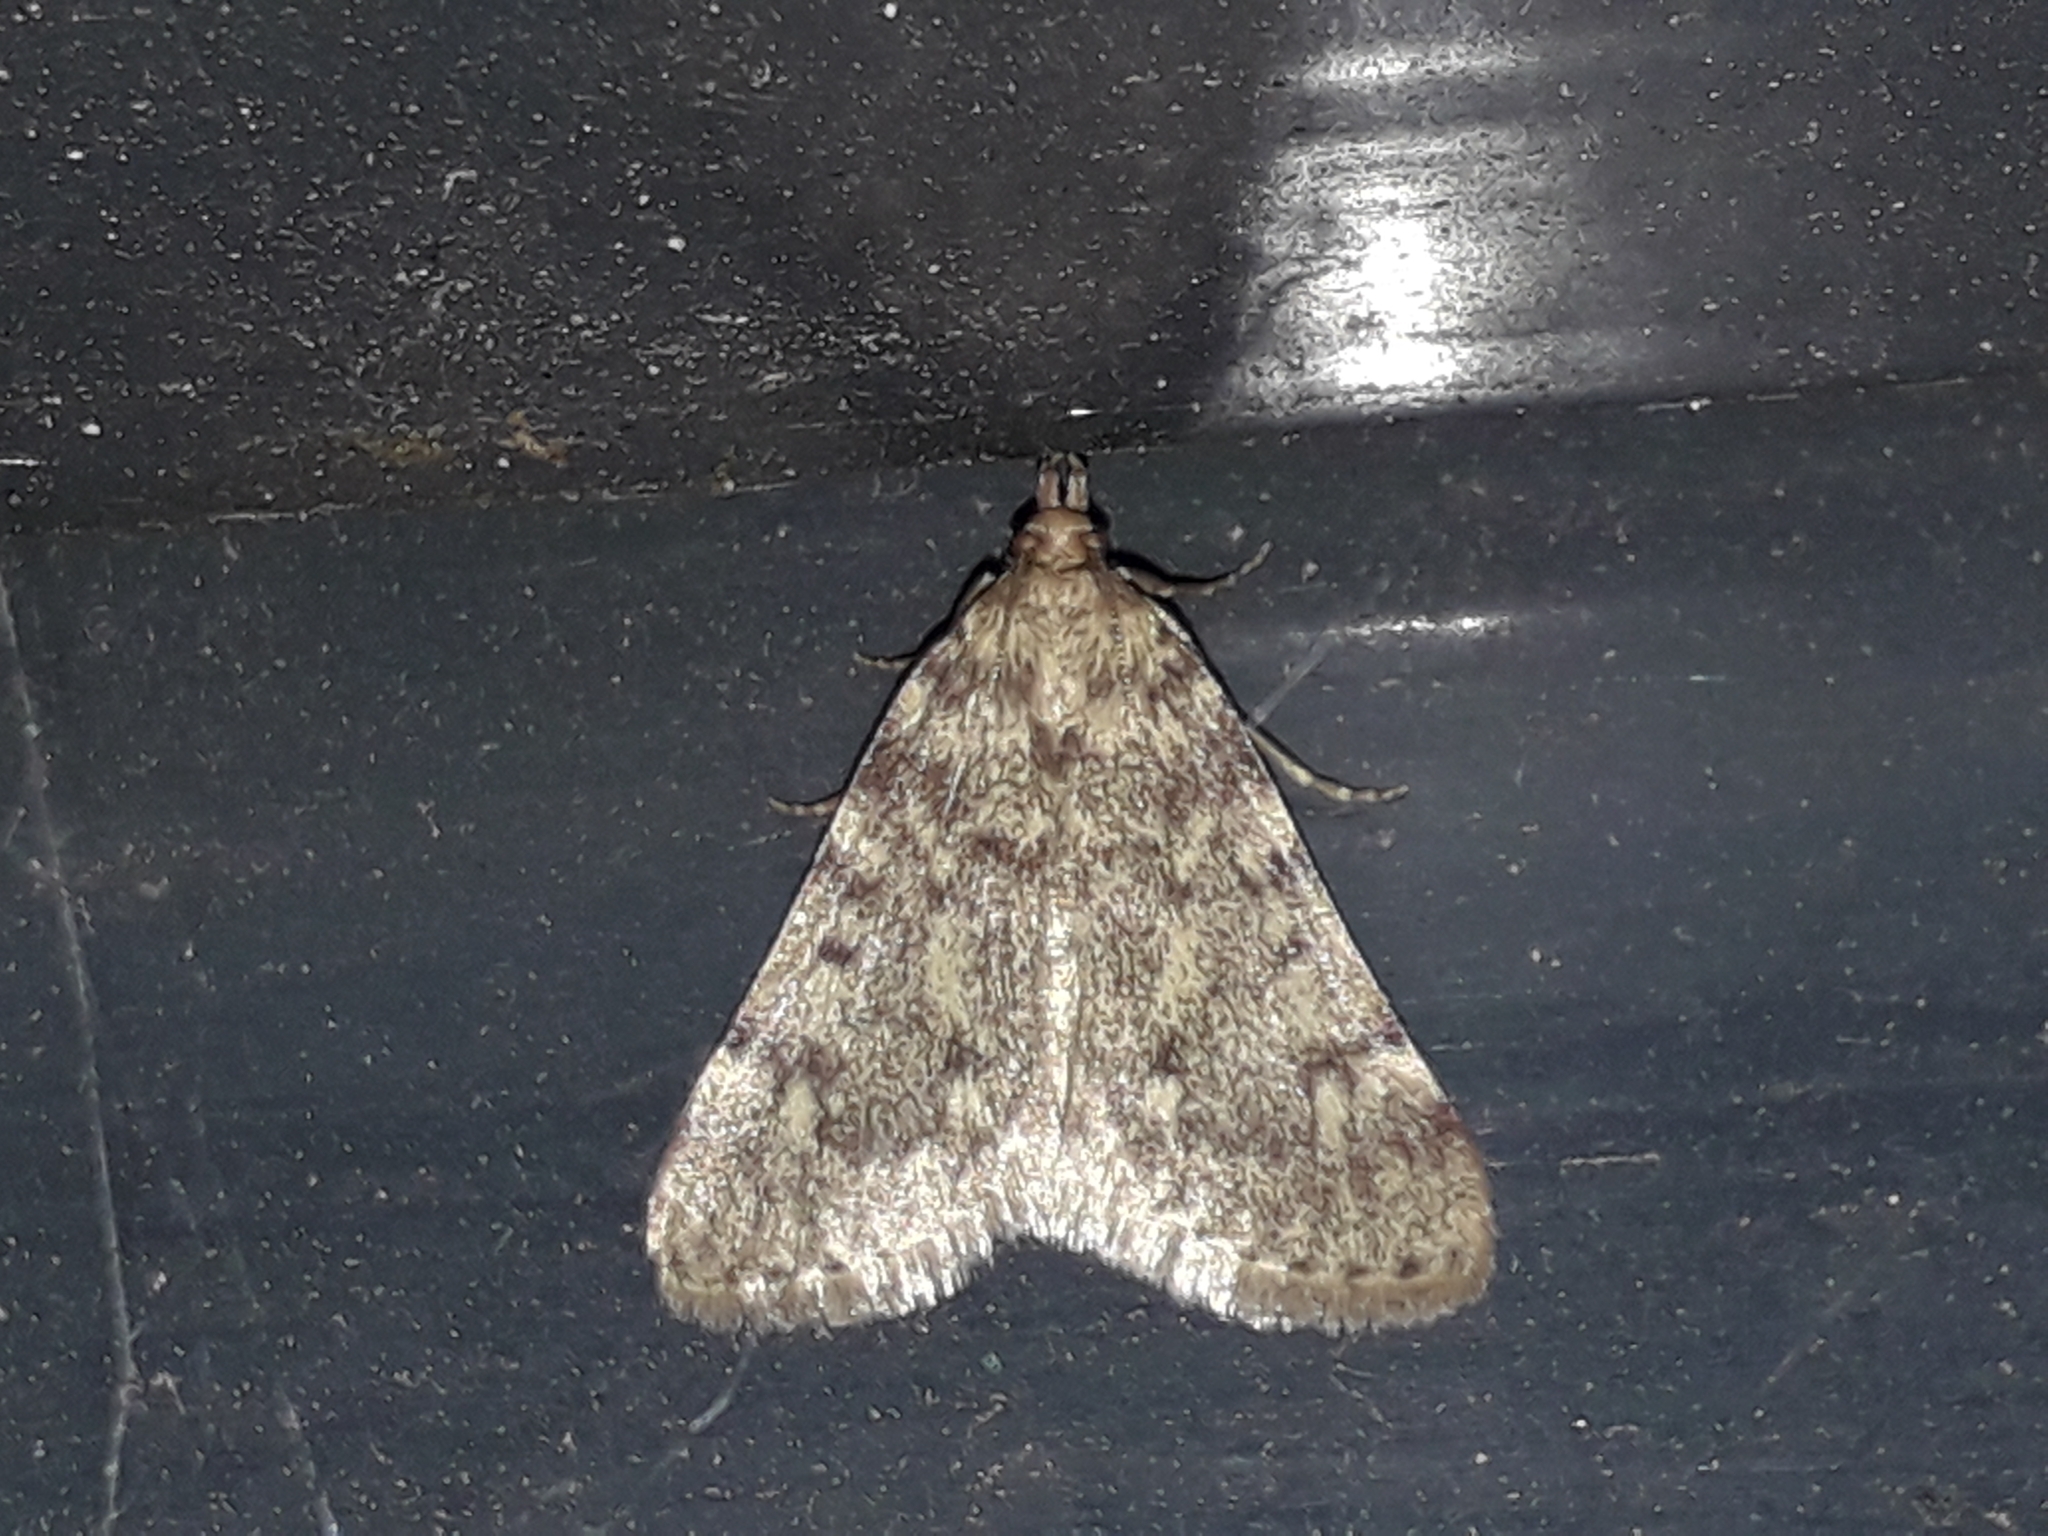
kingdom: Animalia
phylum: Arthropoda
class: Insecta
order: Lepidoptera
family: Pyralidae
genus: Aglossa
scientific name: Aglossa pinguinalis
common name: Large tabby
